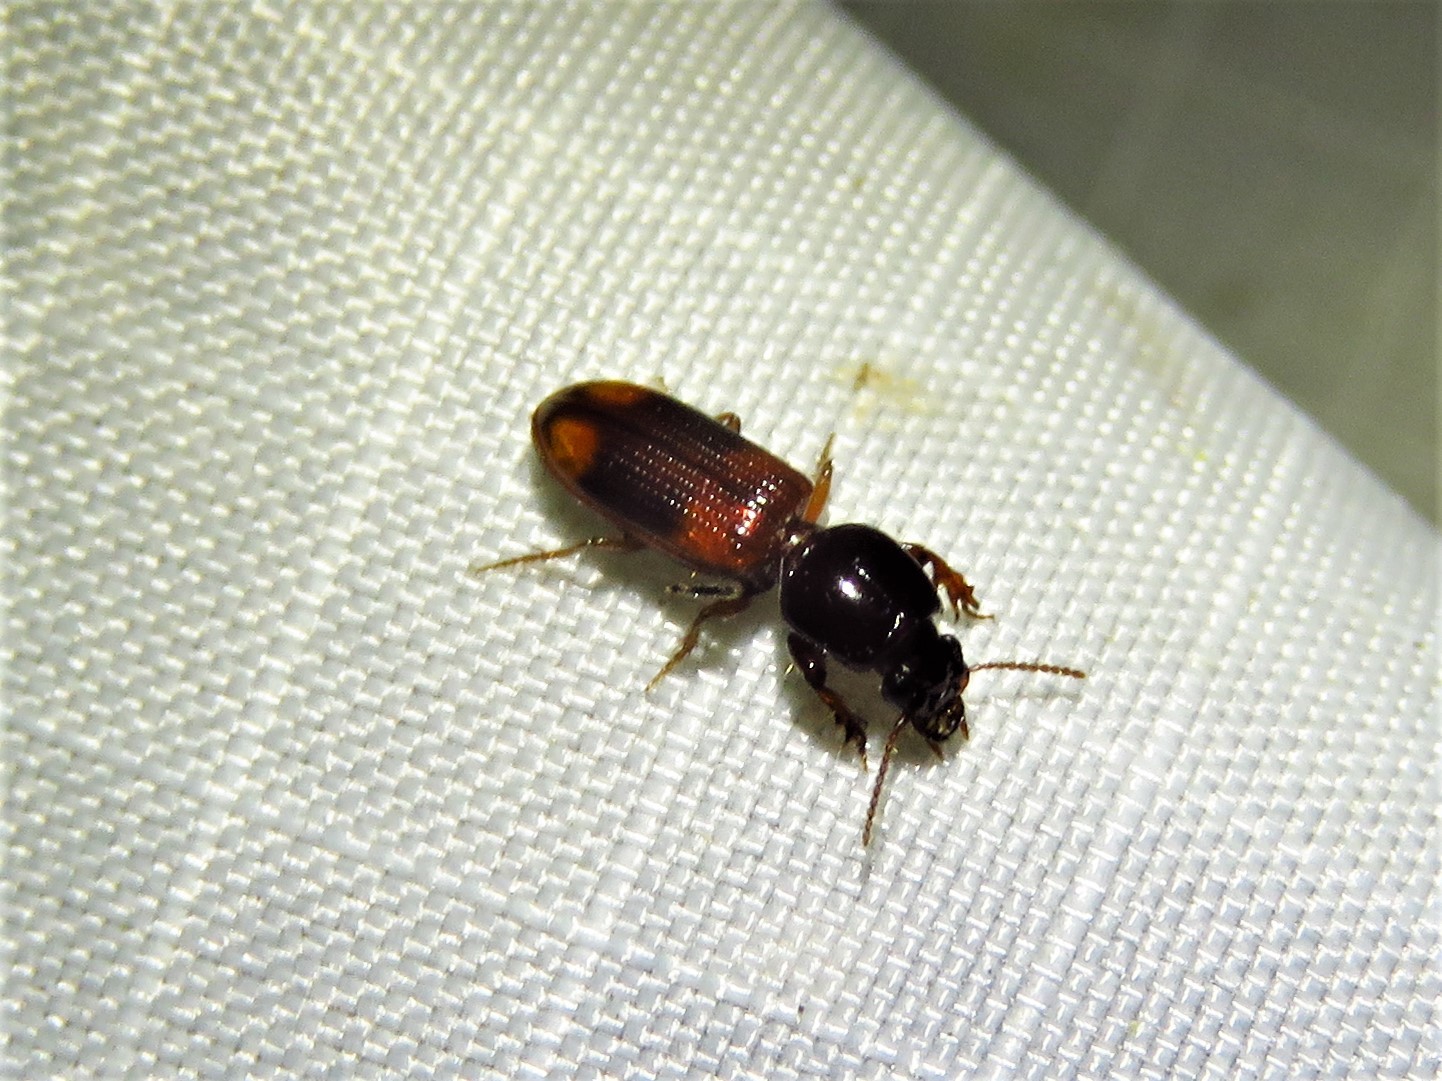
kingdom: Animalia
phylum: Arthropoda
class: Insecta
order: Coleoptera
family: Carabidae
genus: Clivina
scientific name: Clivina bipustulata
